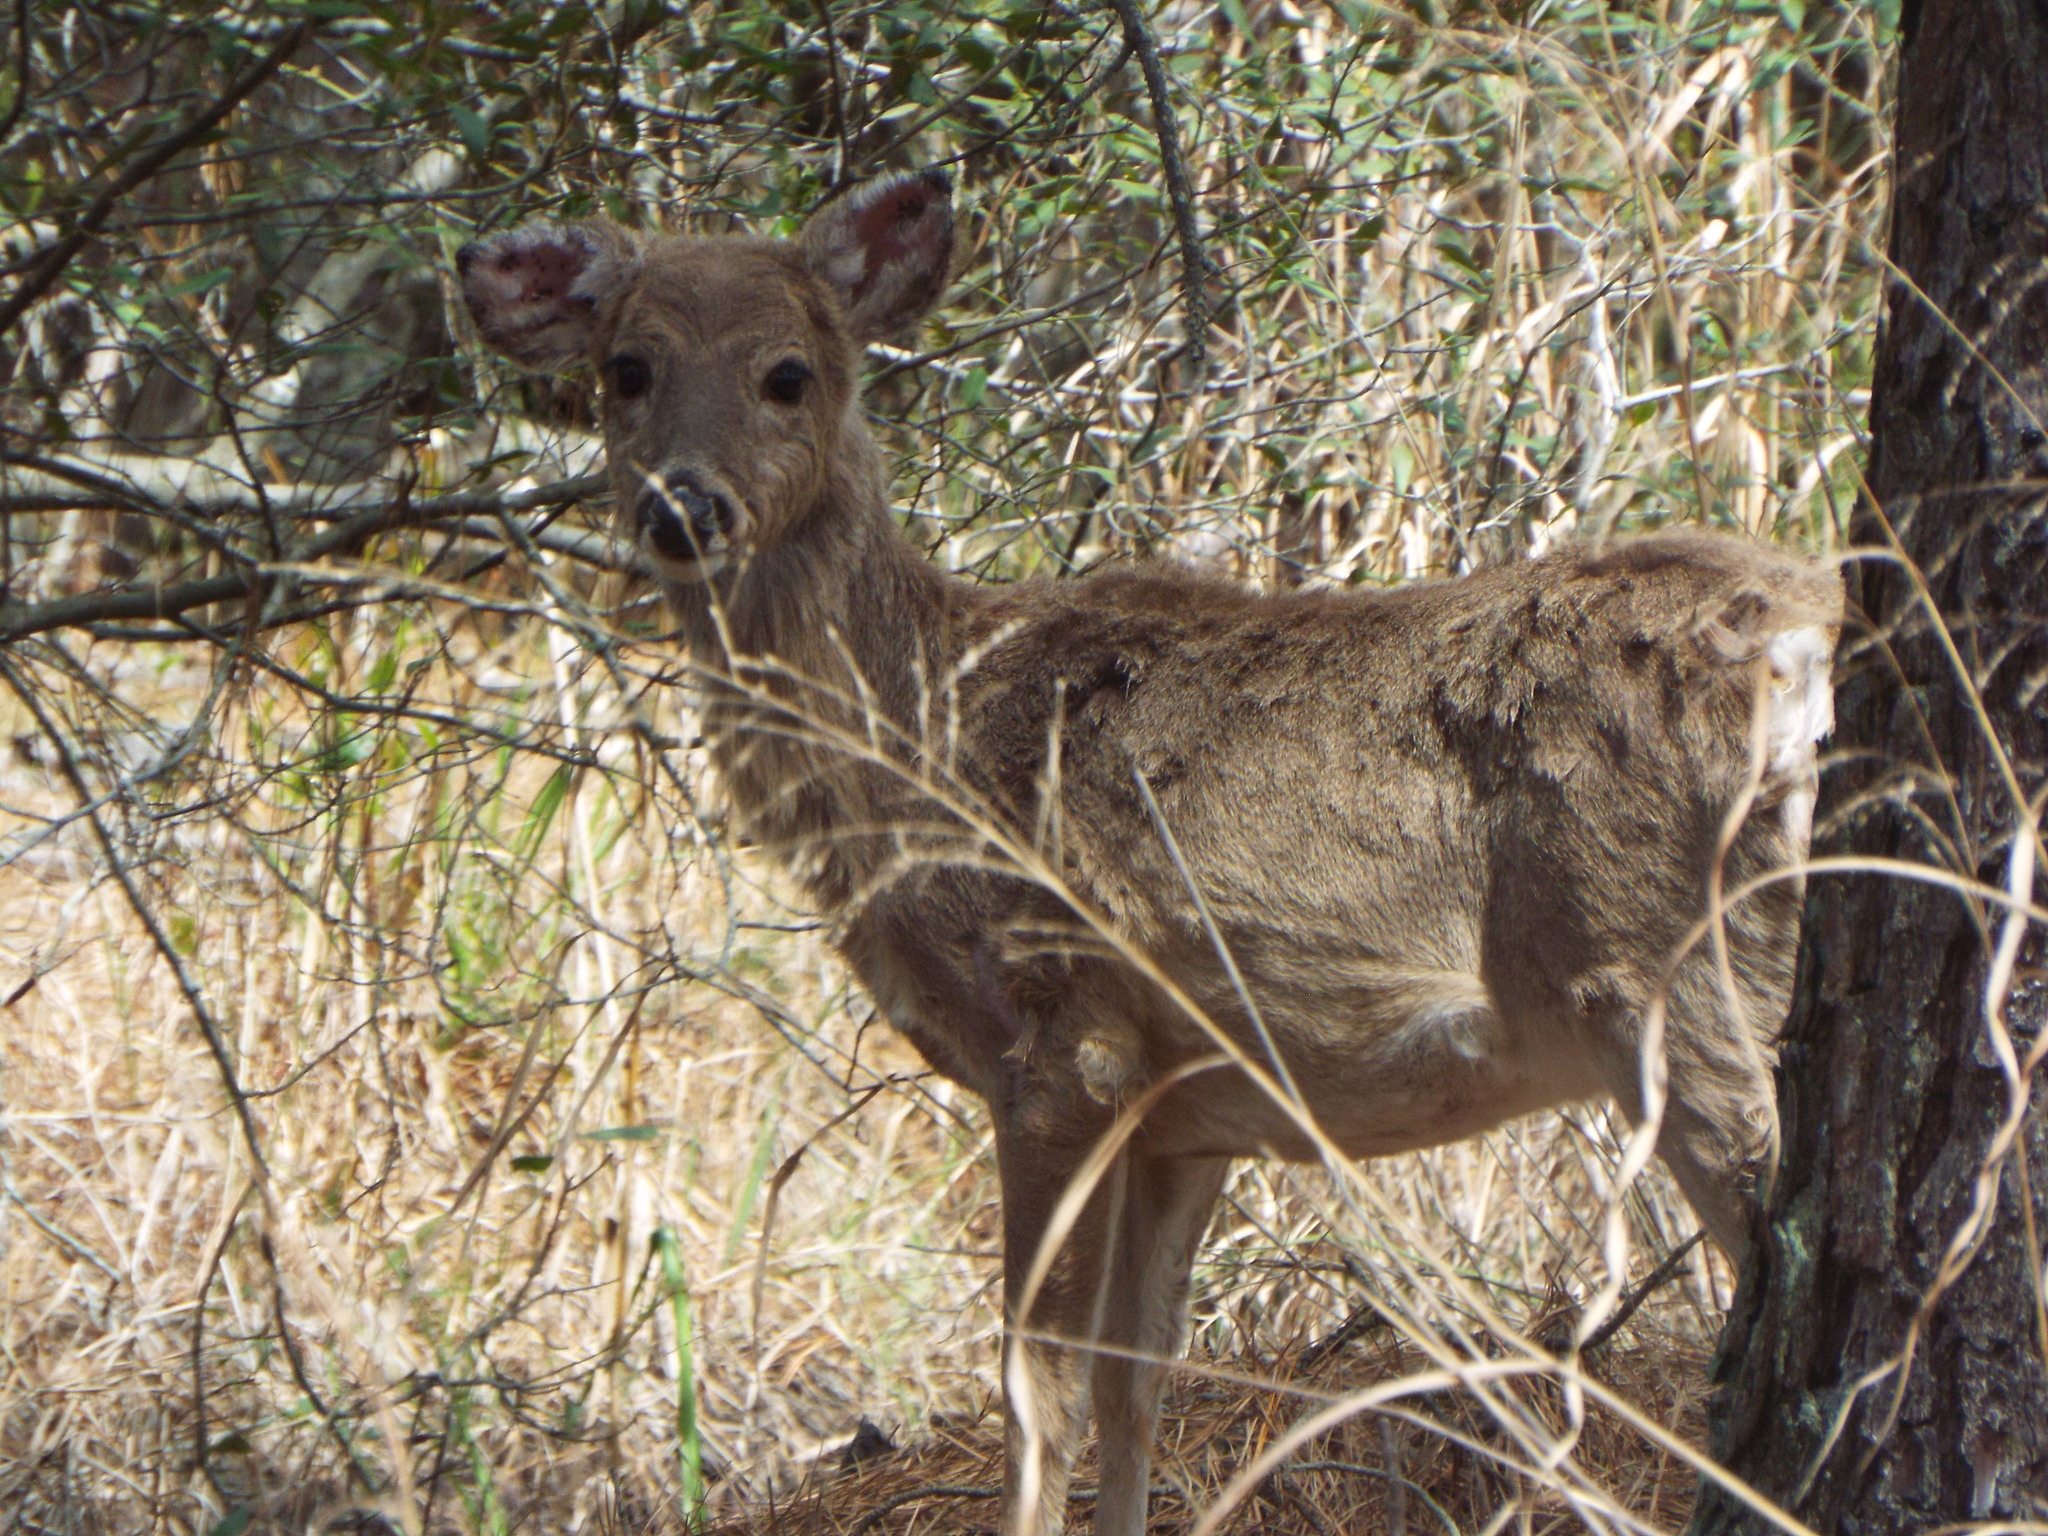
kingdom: Animalia
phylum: Chordata
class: Mammalia
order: Artiodactyla
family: Cervidae
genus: Odocoileus
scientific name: Odocoileus virginianus
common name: White-tailed deer
